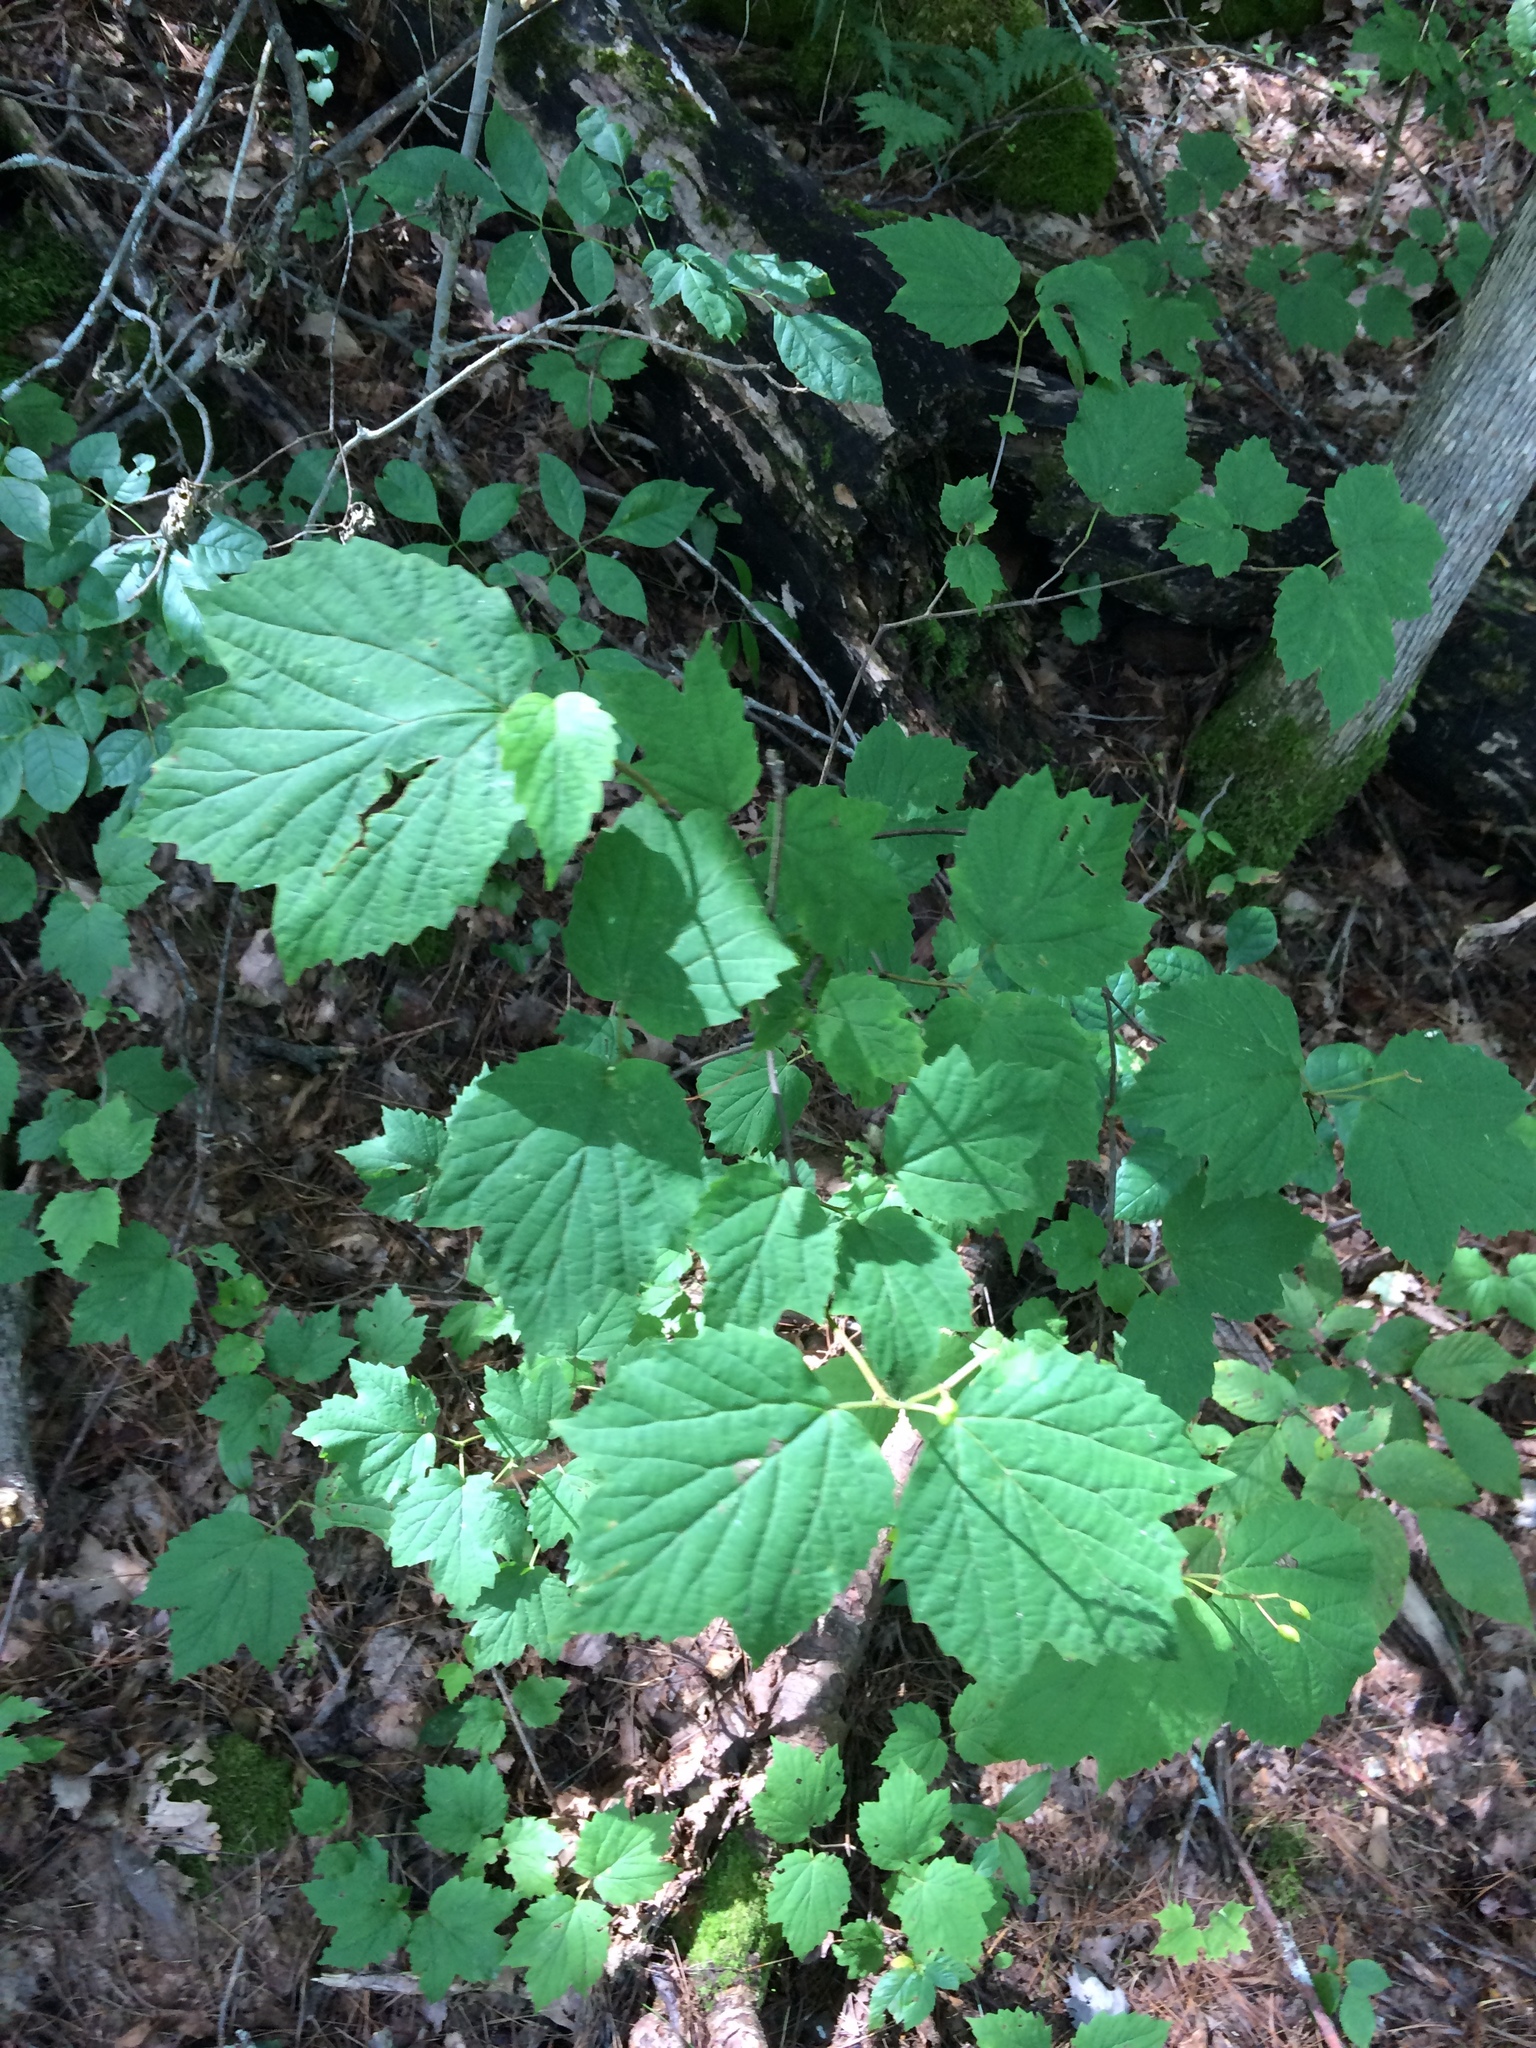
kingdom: Plantae
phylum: Tracheophyta
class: Magnoliopsida
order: Dipsacales
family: Viburnaceae
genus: Viburnum
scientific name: Viburnum acerifolium
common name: Dockmackie
